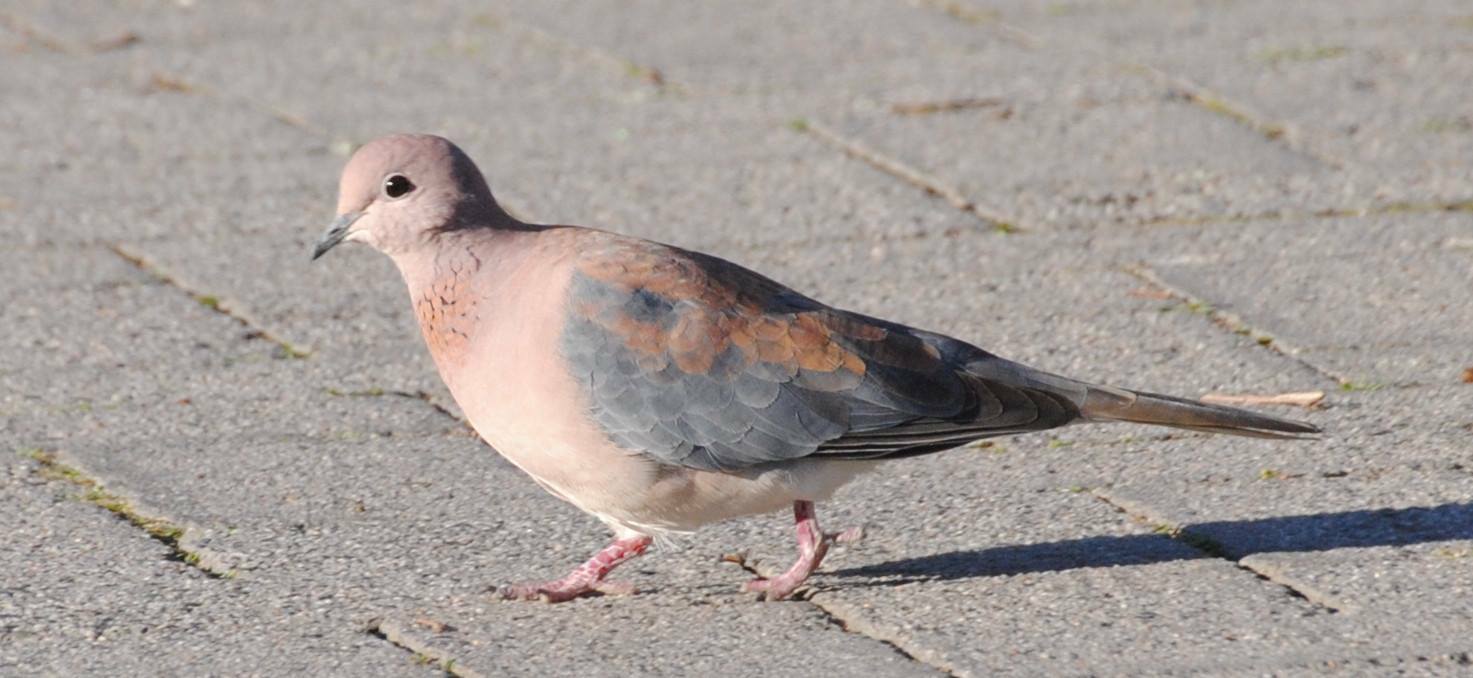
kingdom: Animalia
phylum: Chordata
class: Aves
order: Columbiformes
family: Columbidae
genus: Spilopelia
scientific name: Spilopelia senegalensis
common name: Laughing dove
